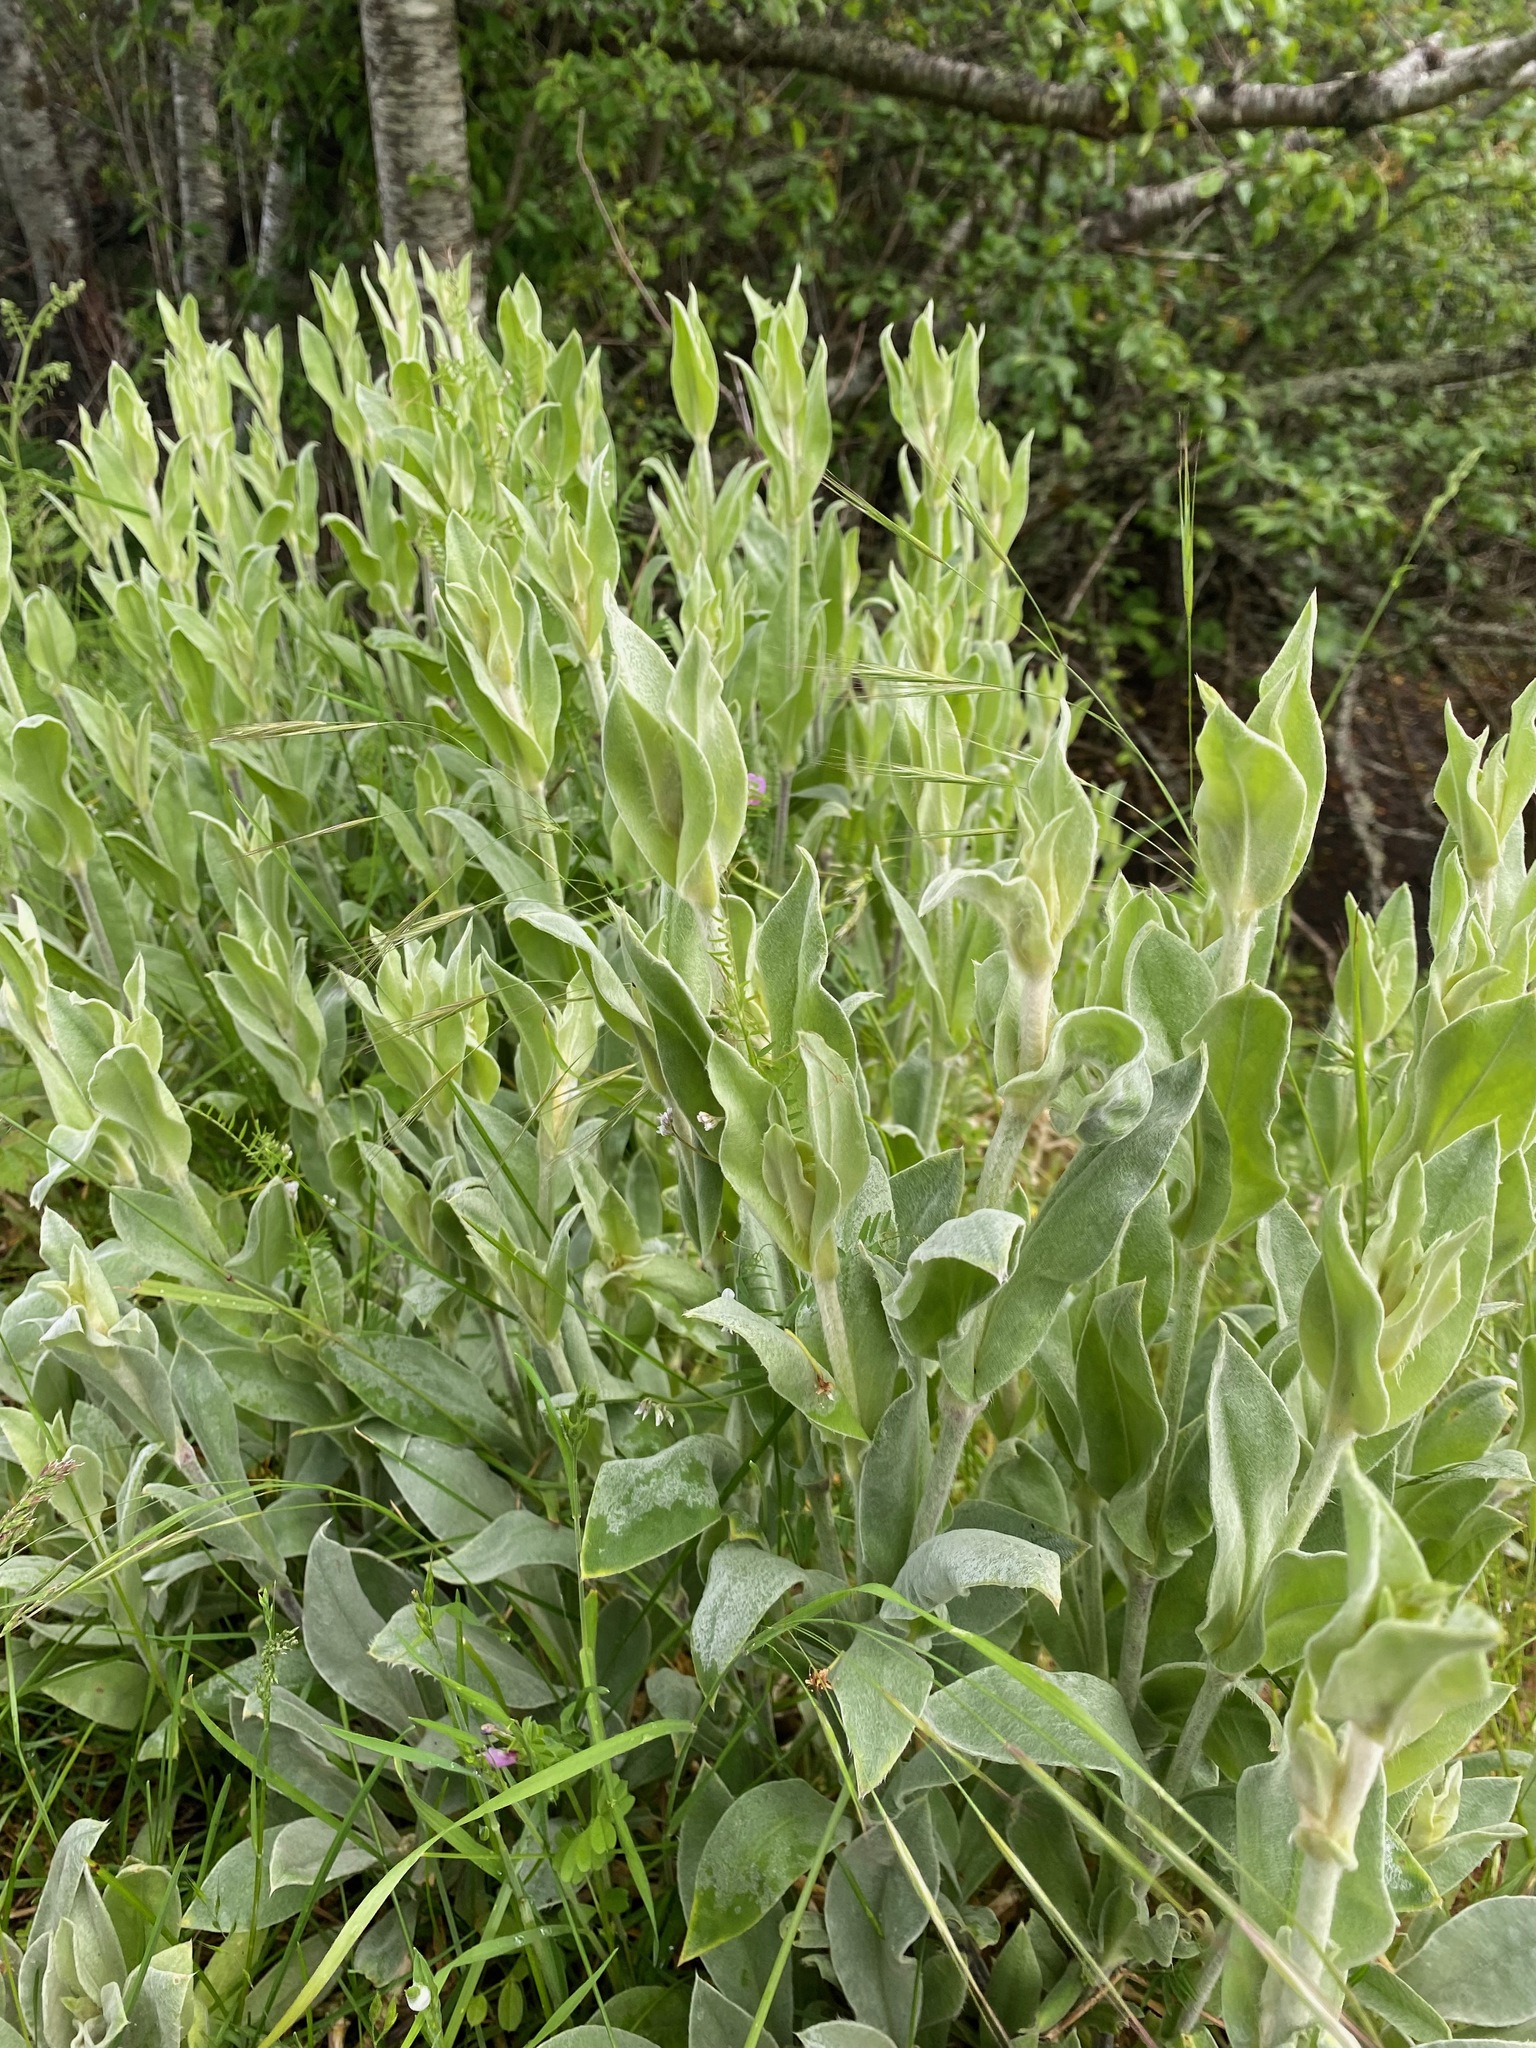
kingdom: Plantae
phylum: Tracheophyta
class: Magnoliopsida
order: Caryophyllales
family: Caryophyllaceae
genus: Silene
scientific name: Silene coronaria
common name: Rose campion
